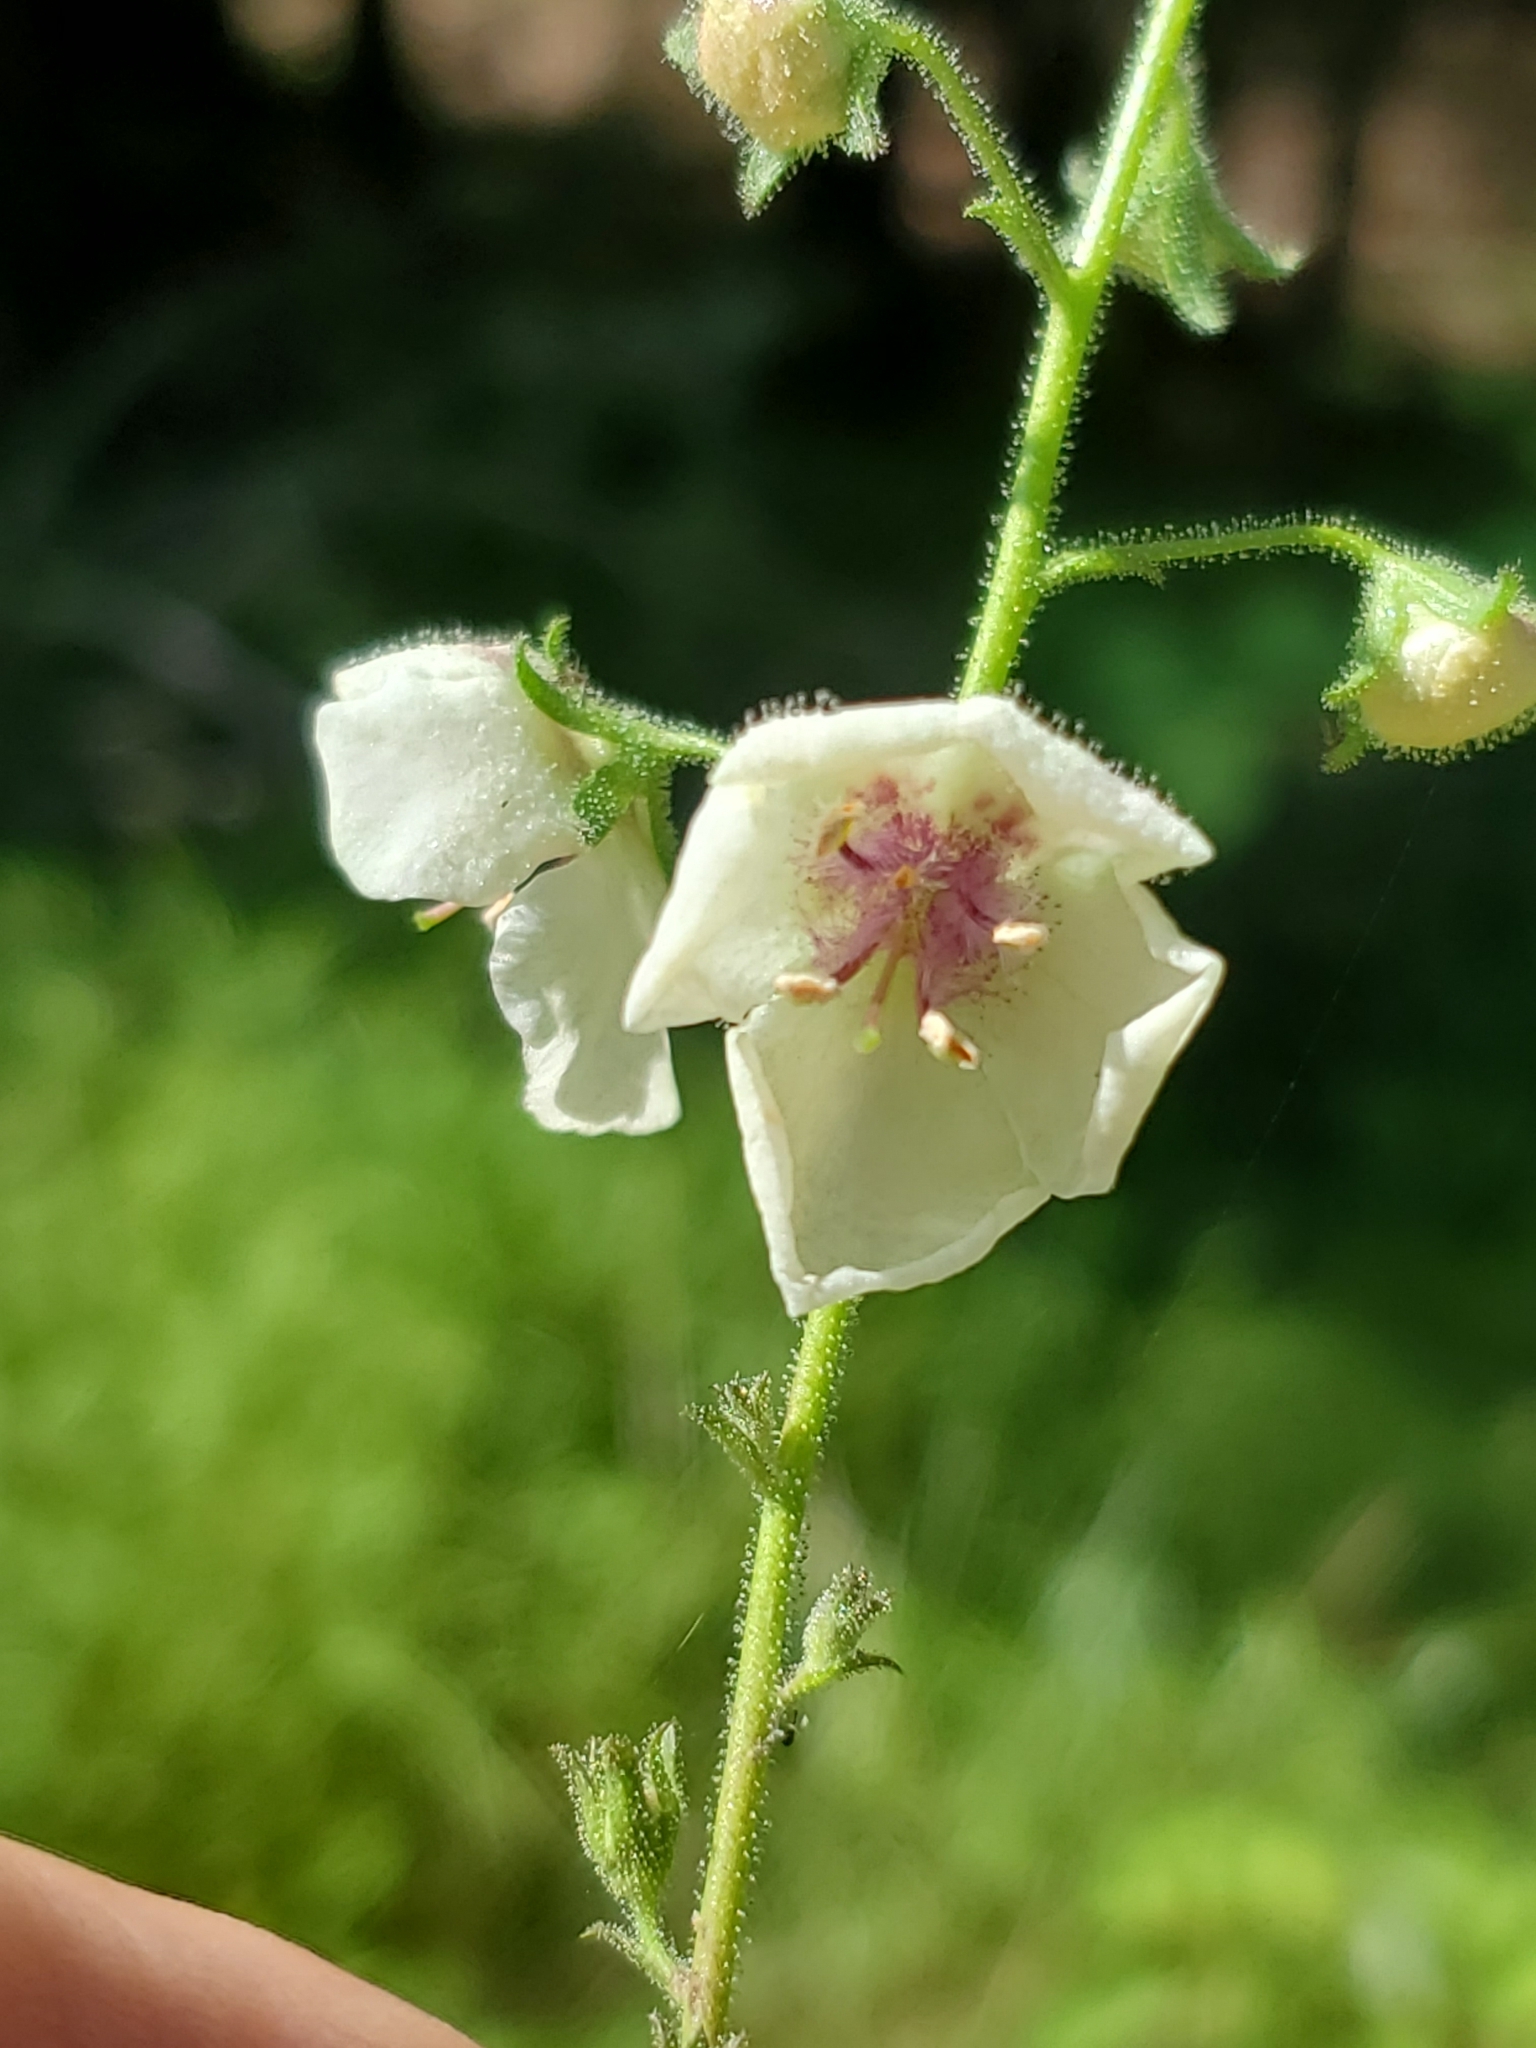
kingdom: Plantae
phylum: Tracheophyta
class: Magnoliopsida
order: Lamiales
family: Scrophulariaceae
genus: Verbascum
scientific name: Verbascum blattaria
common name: Moth mullein
